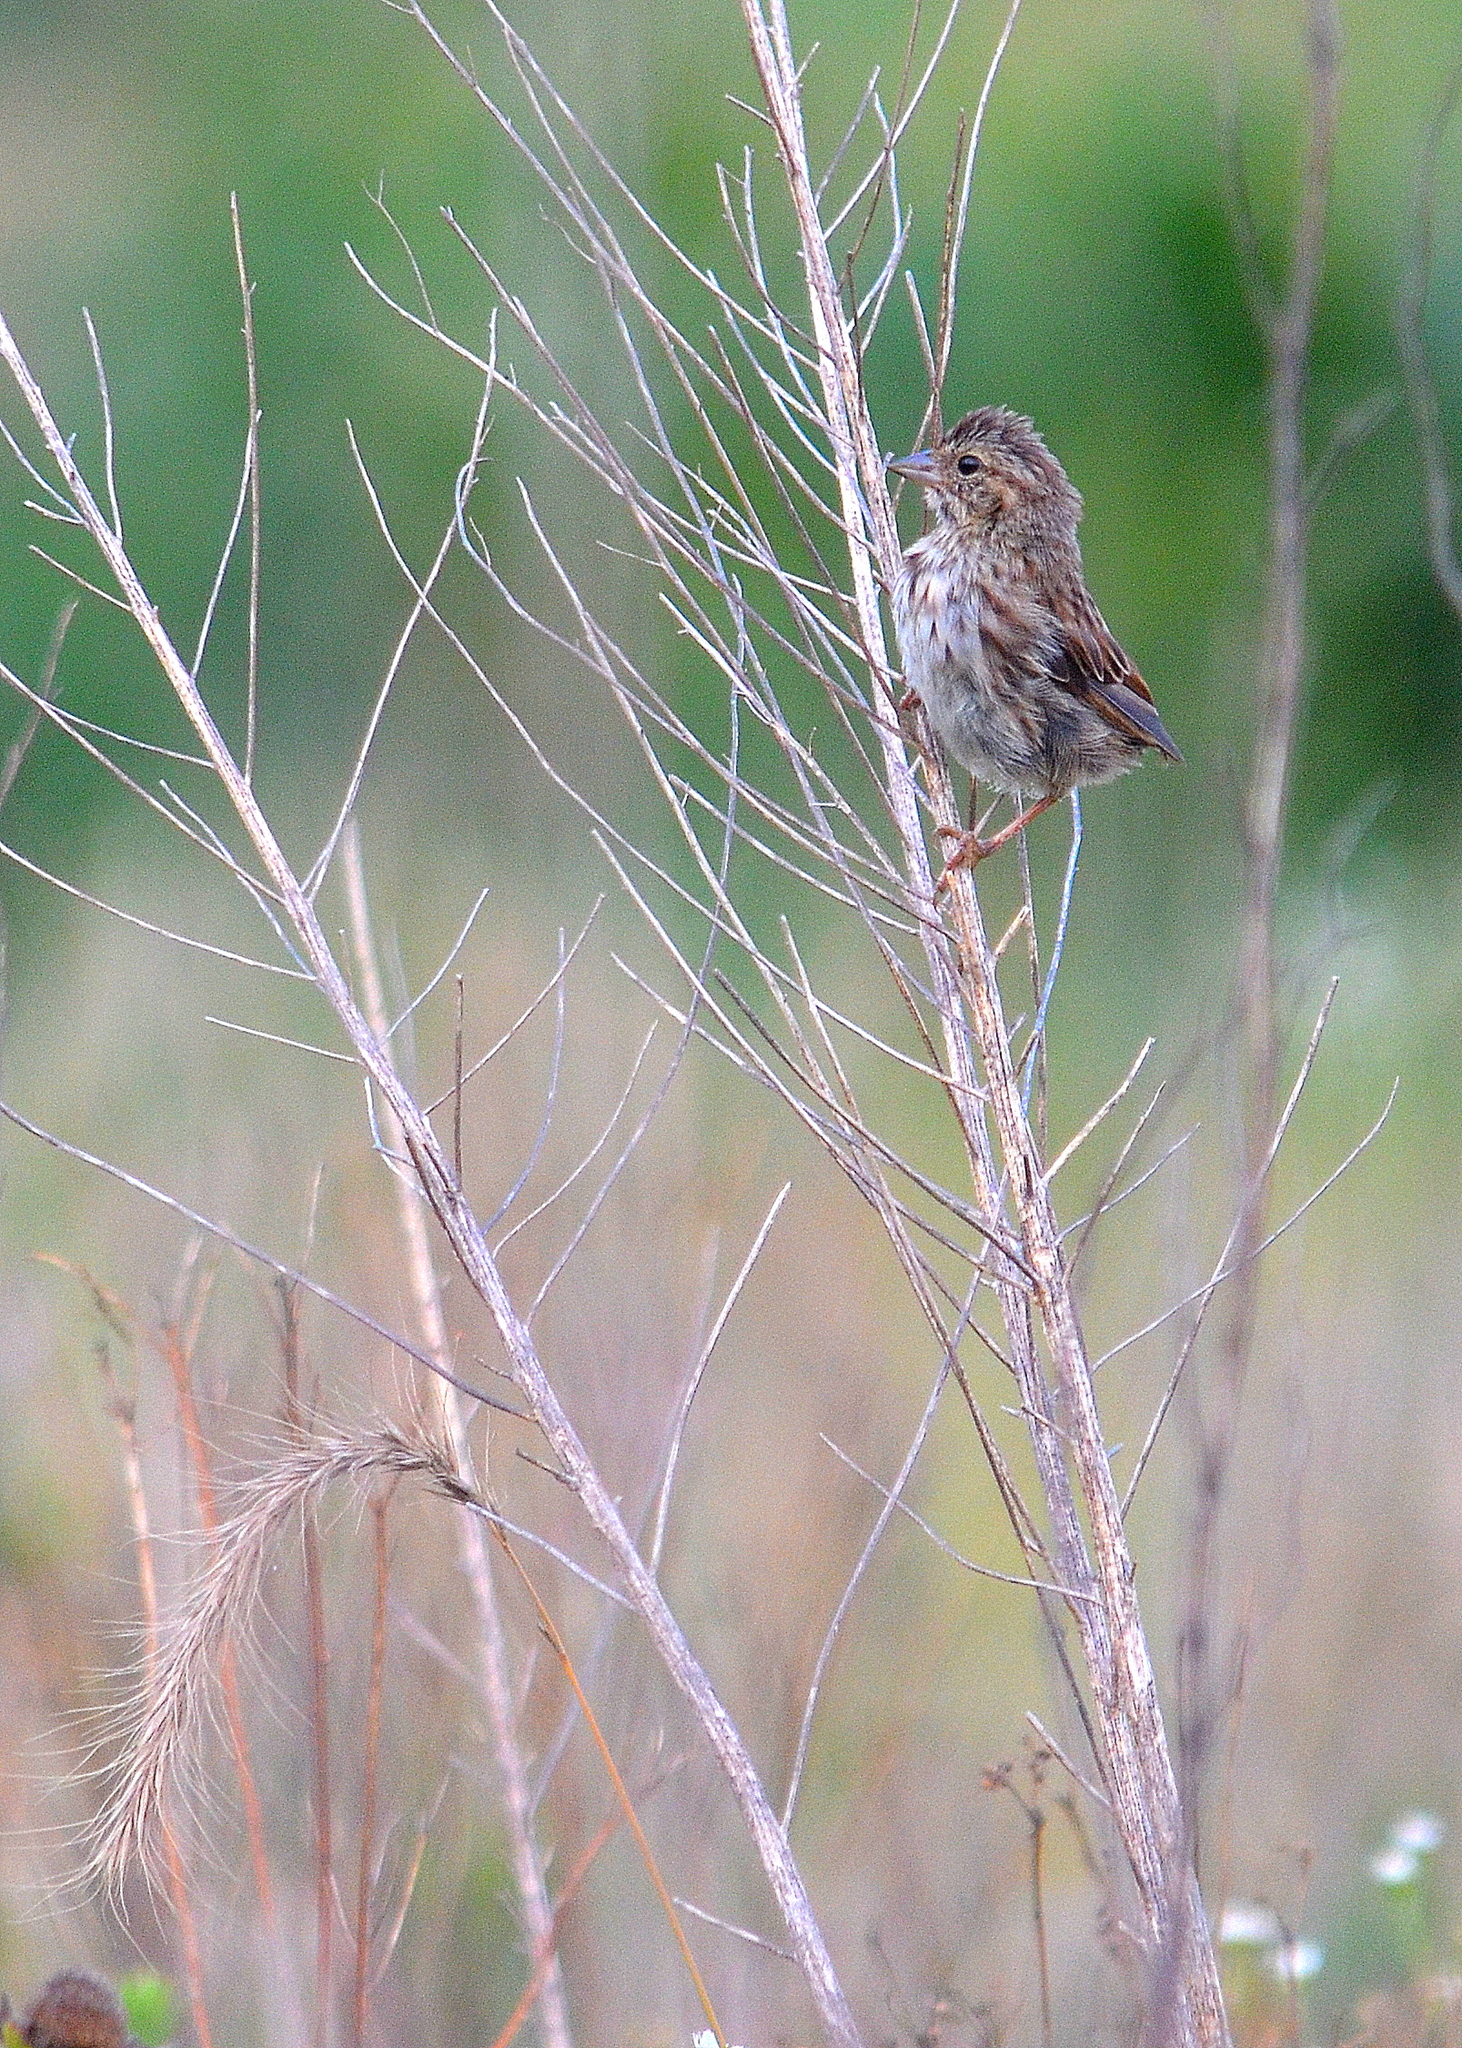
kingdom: Animalia
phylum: Chordata
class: Aves
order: Passeriformes
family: Passerellidae
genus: Passerculus
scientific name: Passerculus sandwichensis
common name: Savannah sparrow
